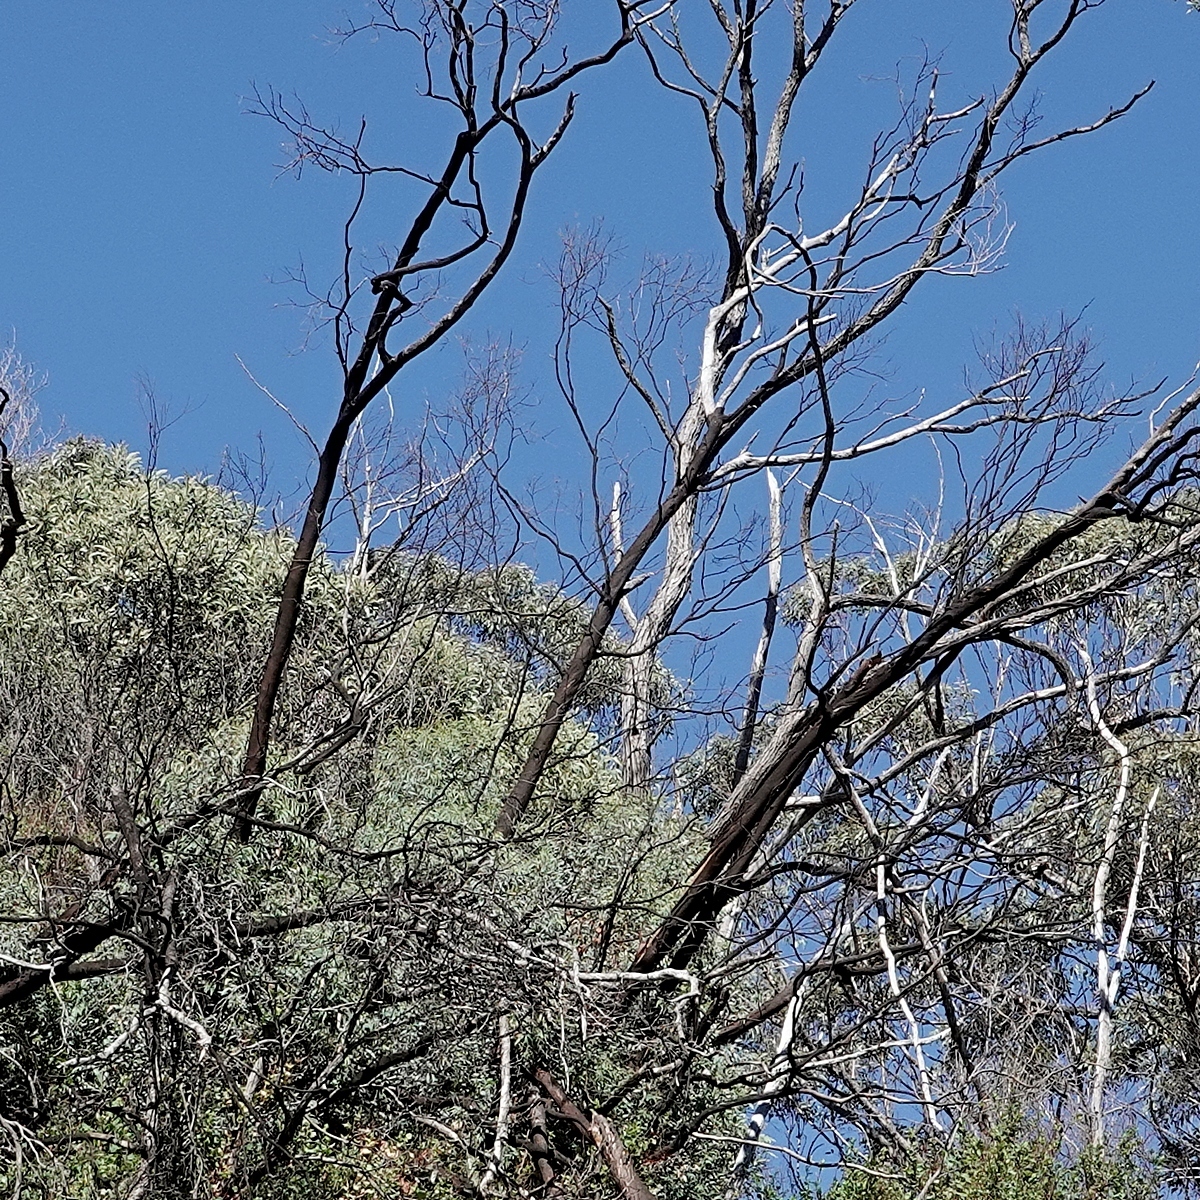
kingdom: Plantae
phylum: Tracheophyta
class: Magnoliopsida
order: Myrtales
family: Myrtaceae
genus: Eucalyptus
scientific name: Eucalyptus wilcoxii
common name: Deua gum
